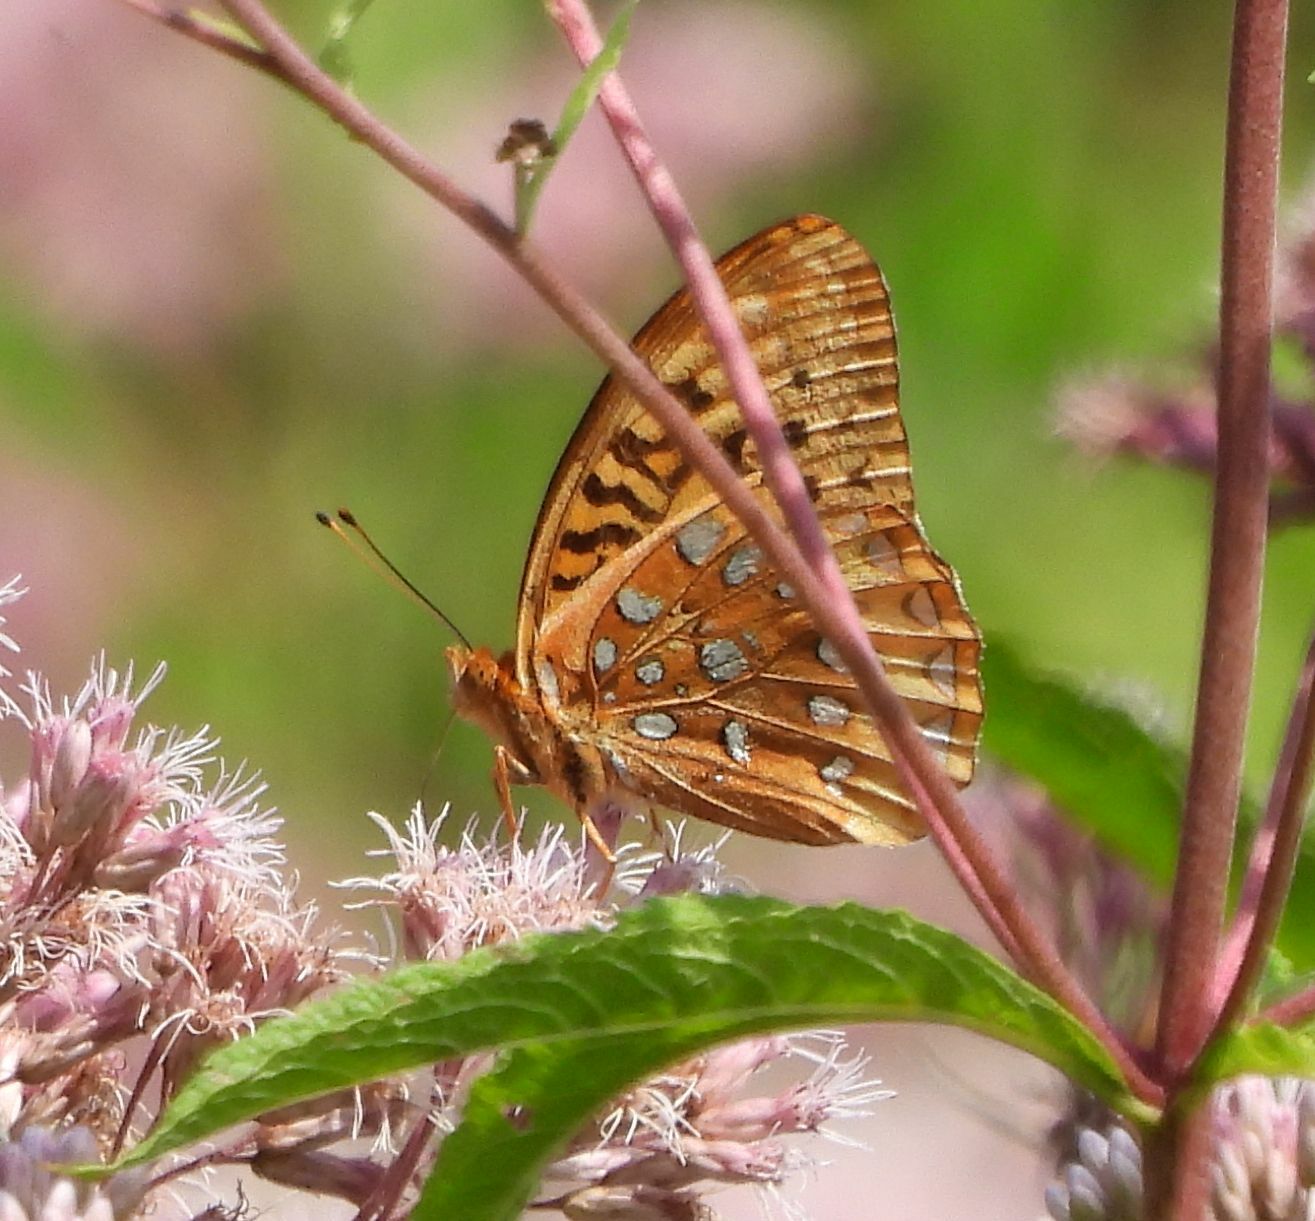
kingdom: Animalia
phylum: Arthropoda
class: Insecta
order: Lepidoptera
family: Nymphalidae
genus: Speyeria
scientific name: Speyeria cybele
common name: Great spangled fritillary
